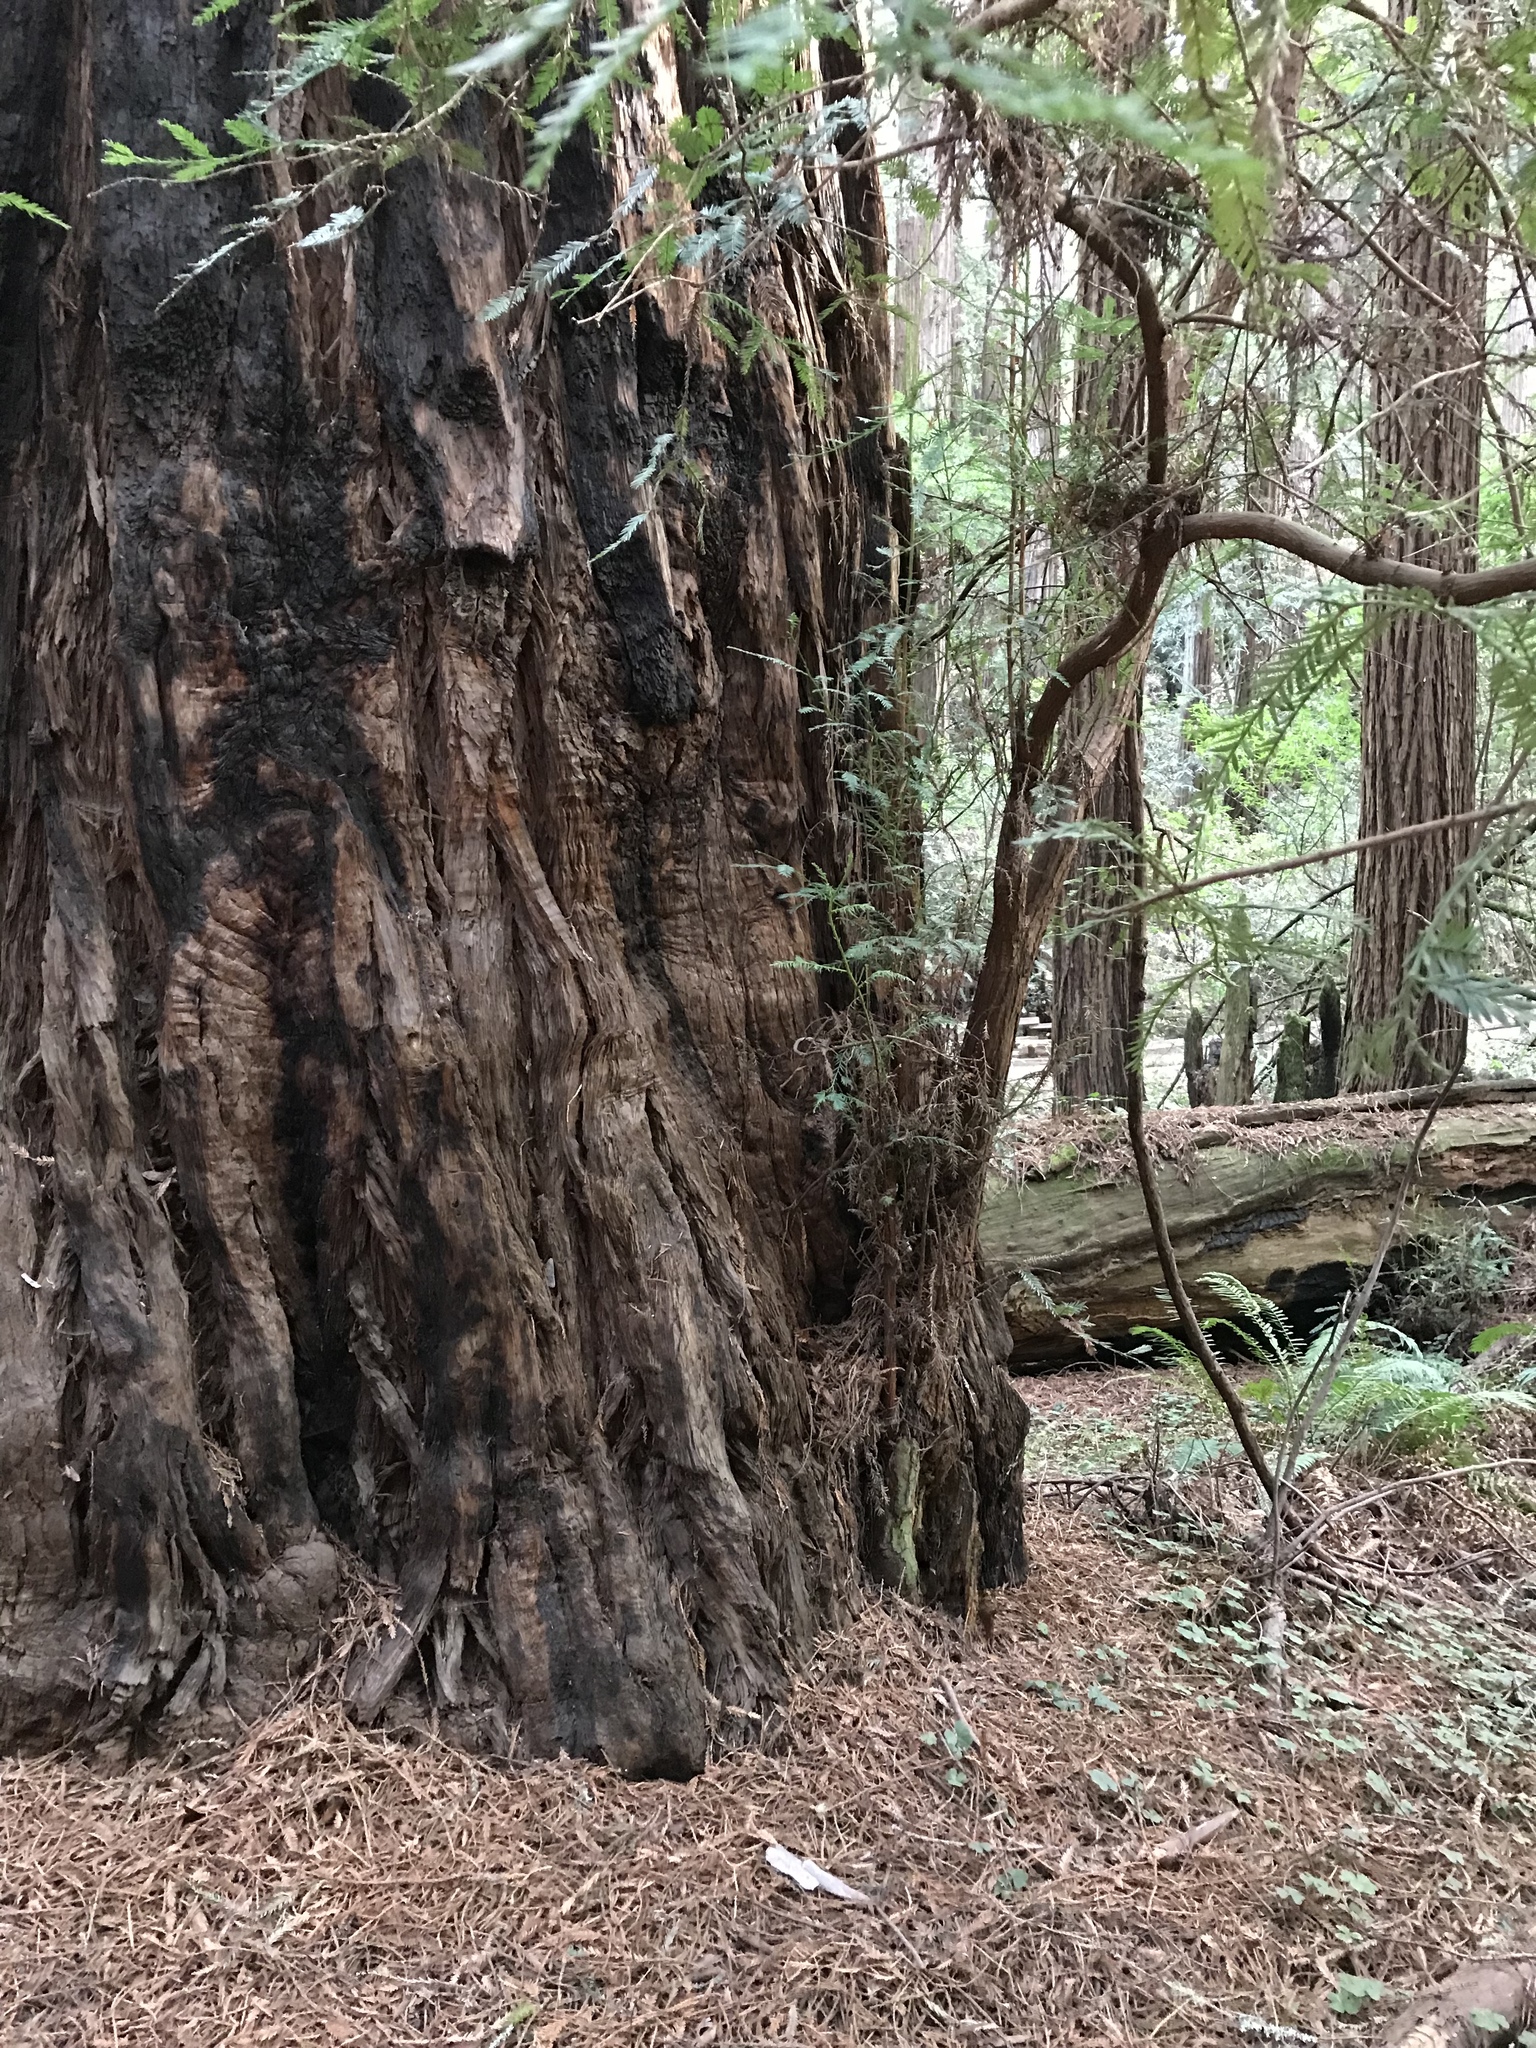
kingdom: Plantae
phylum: Tracheophyta
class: Pinopsida
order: Pinales
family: Cupressaceae
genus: Sequoia
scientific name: Sequoia sempervirens
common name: Coast redwood
